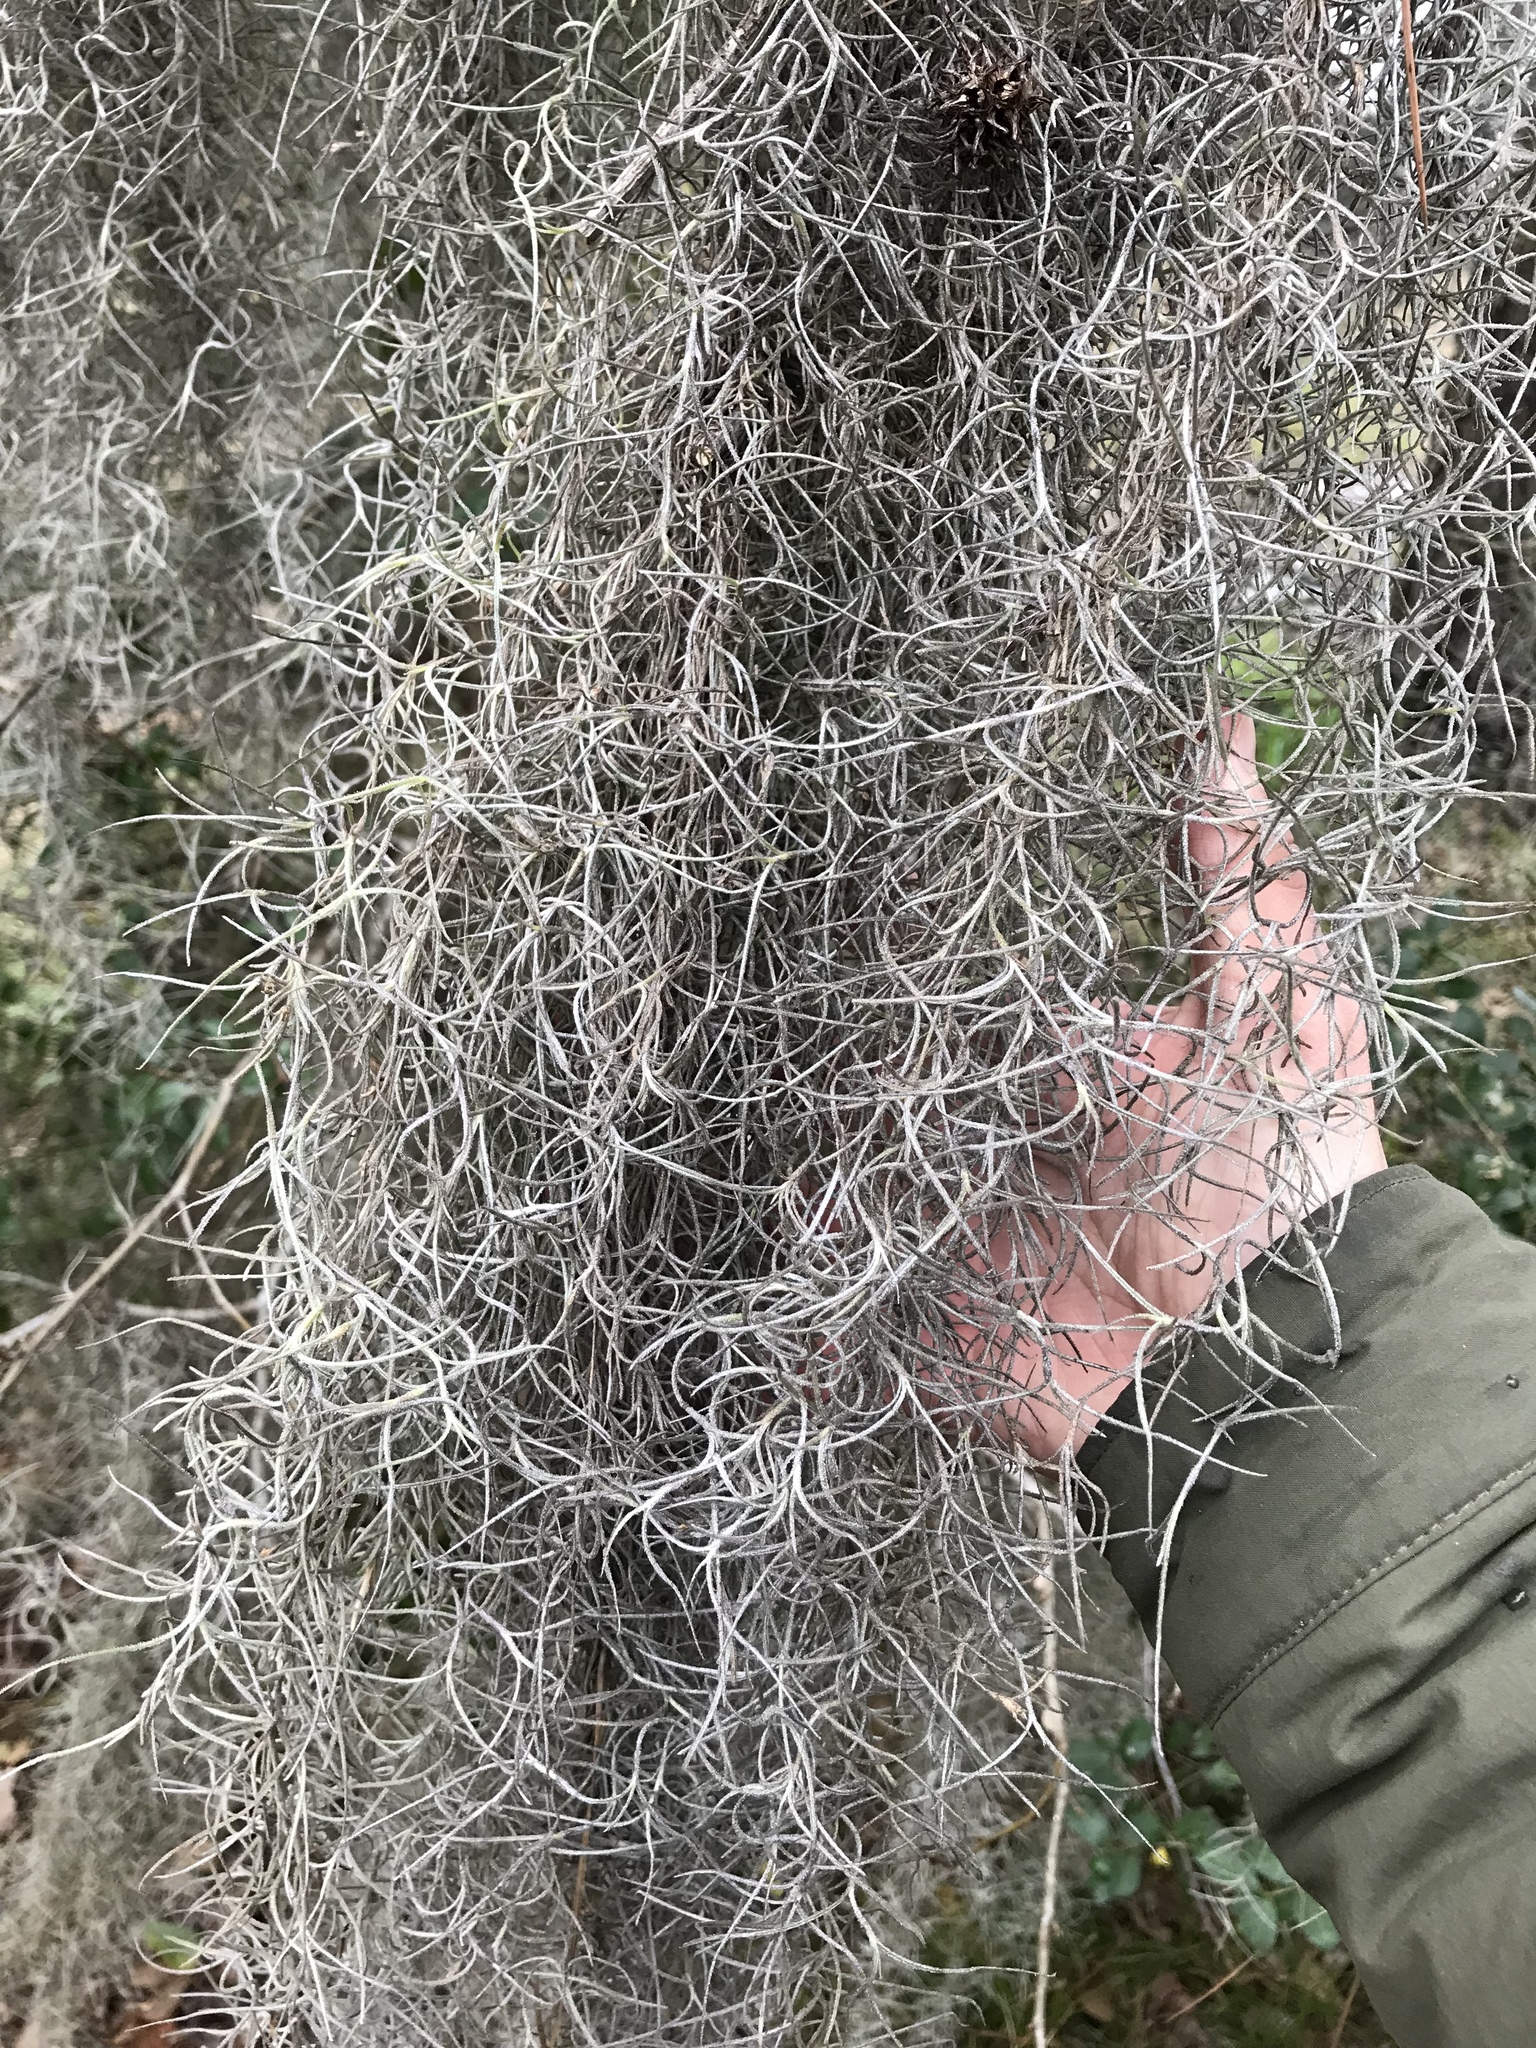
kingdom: Plantae
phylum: Tracheophyta
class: Liliopsida
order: Poales
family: Bromeliaceae
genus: Tillandsia
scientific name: Tillandsia usneoides
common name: Spanish moss
